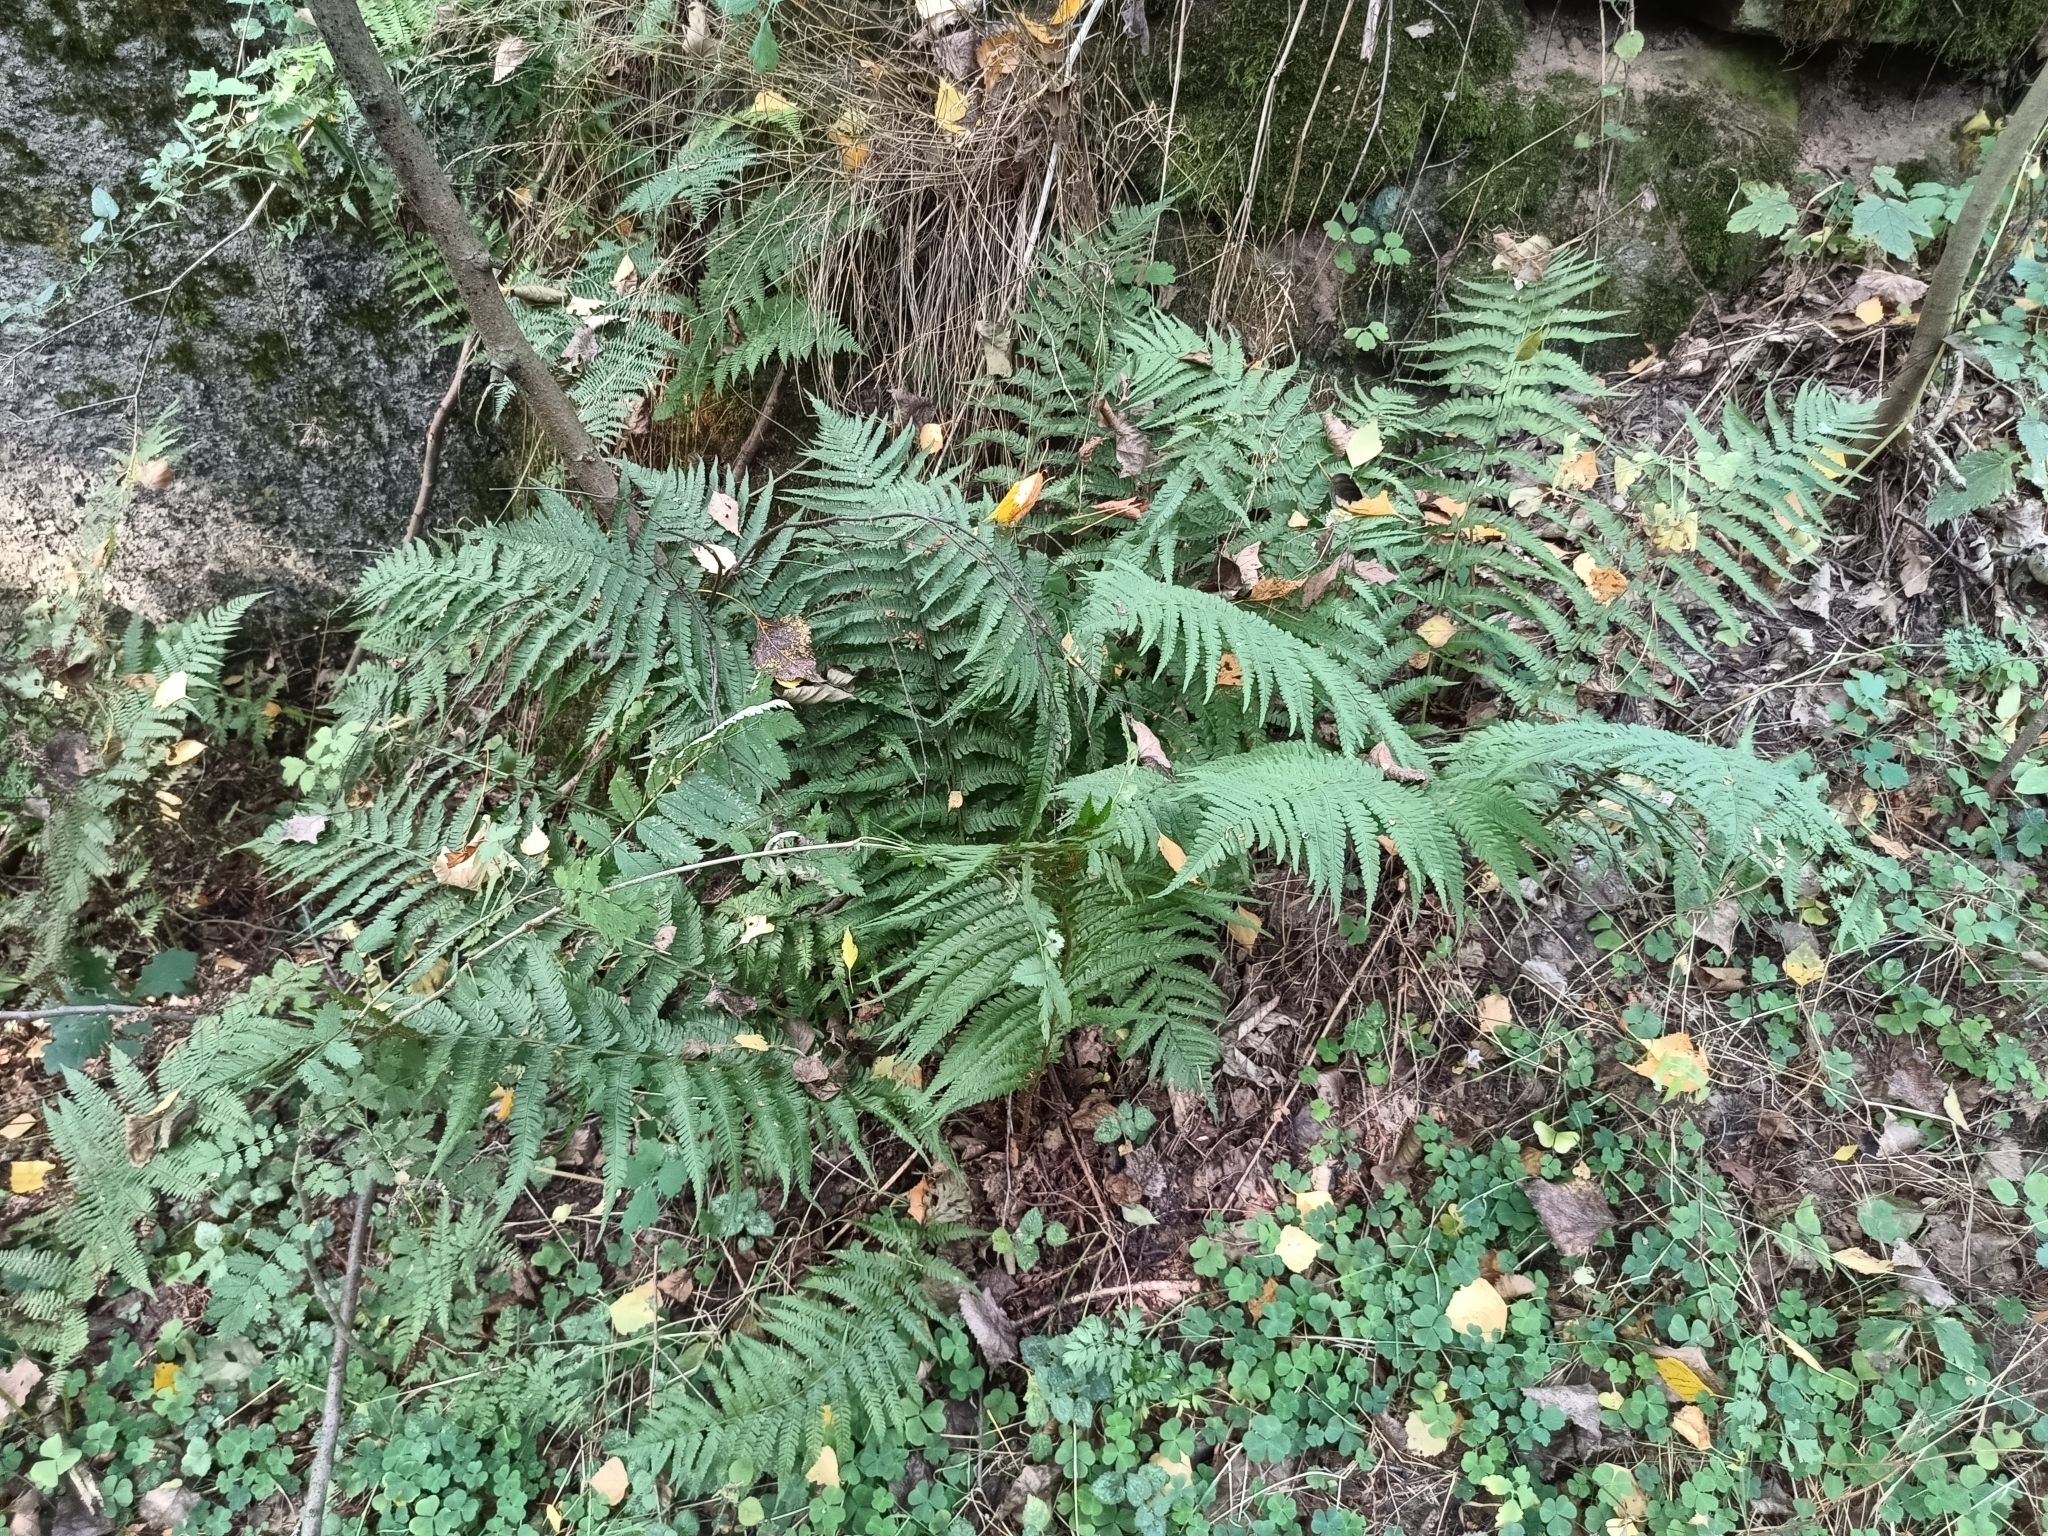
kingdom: Plantae
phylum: Tracheophyta
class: Polypodiopsida
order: Polypodiales
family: Dryopteridaceae
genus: Dryopteris
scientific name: Dryopteris filix-mas
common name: Male fern
